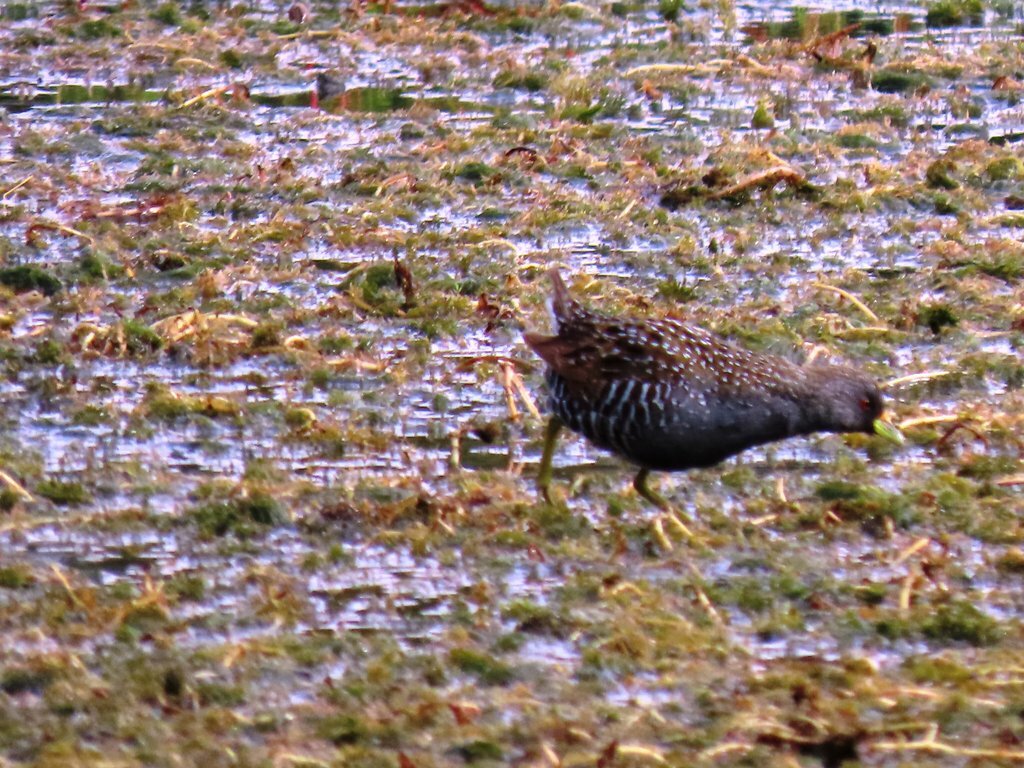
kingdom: Animalia
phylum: Chordata
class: Aves
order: Gruiformes
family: Rallidae
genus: Porzana
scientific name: Porzana fluminea
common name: Australian crake
